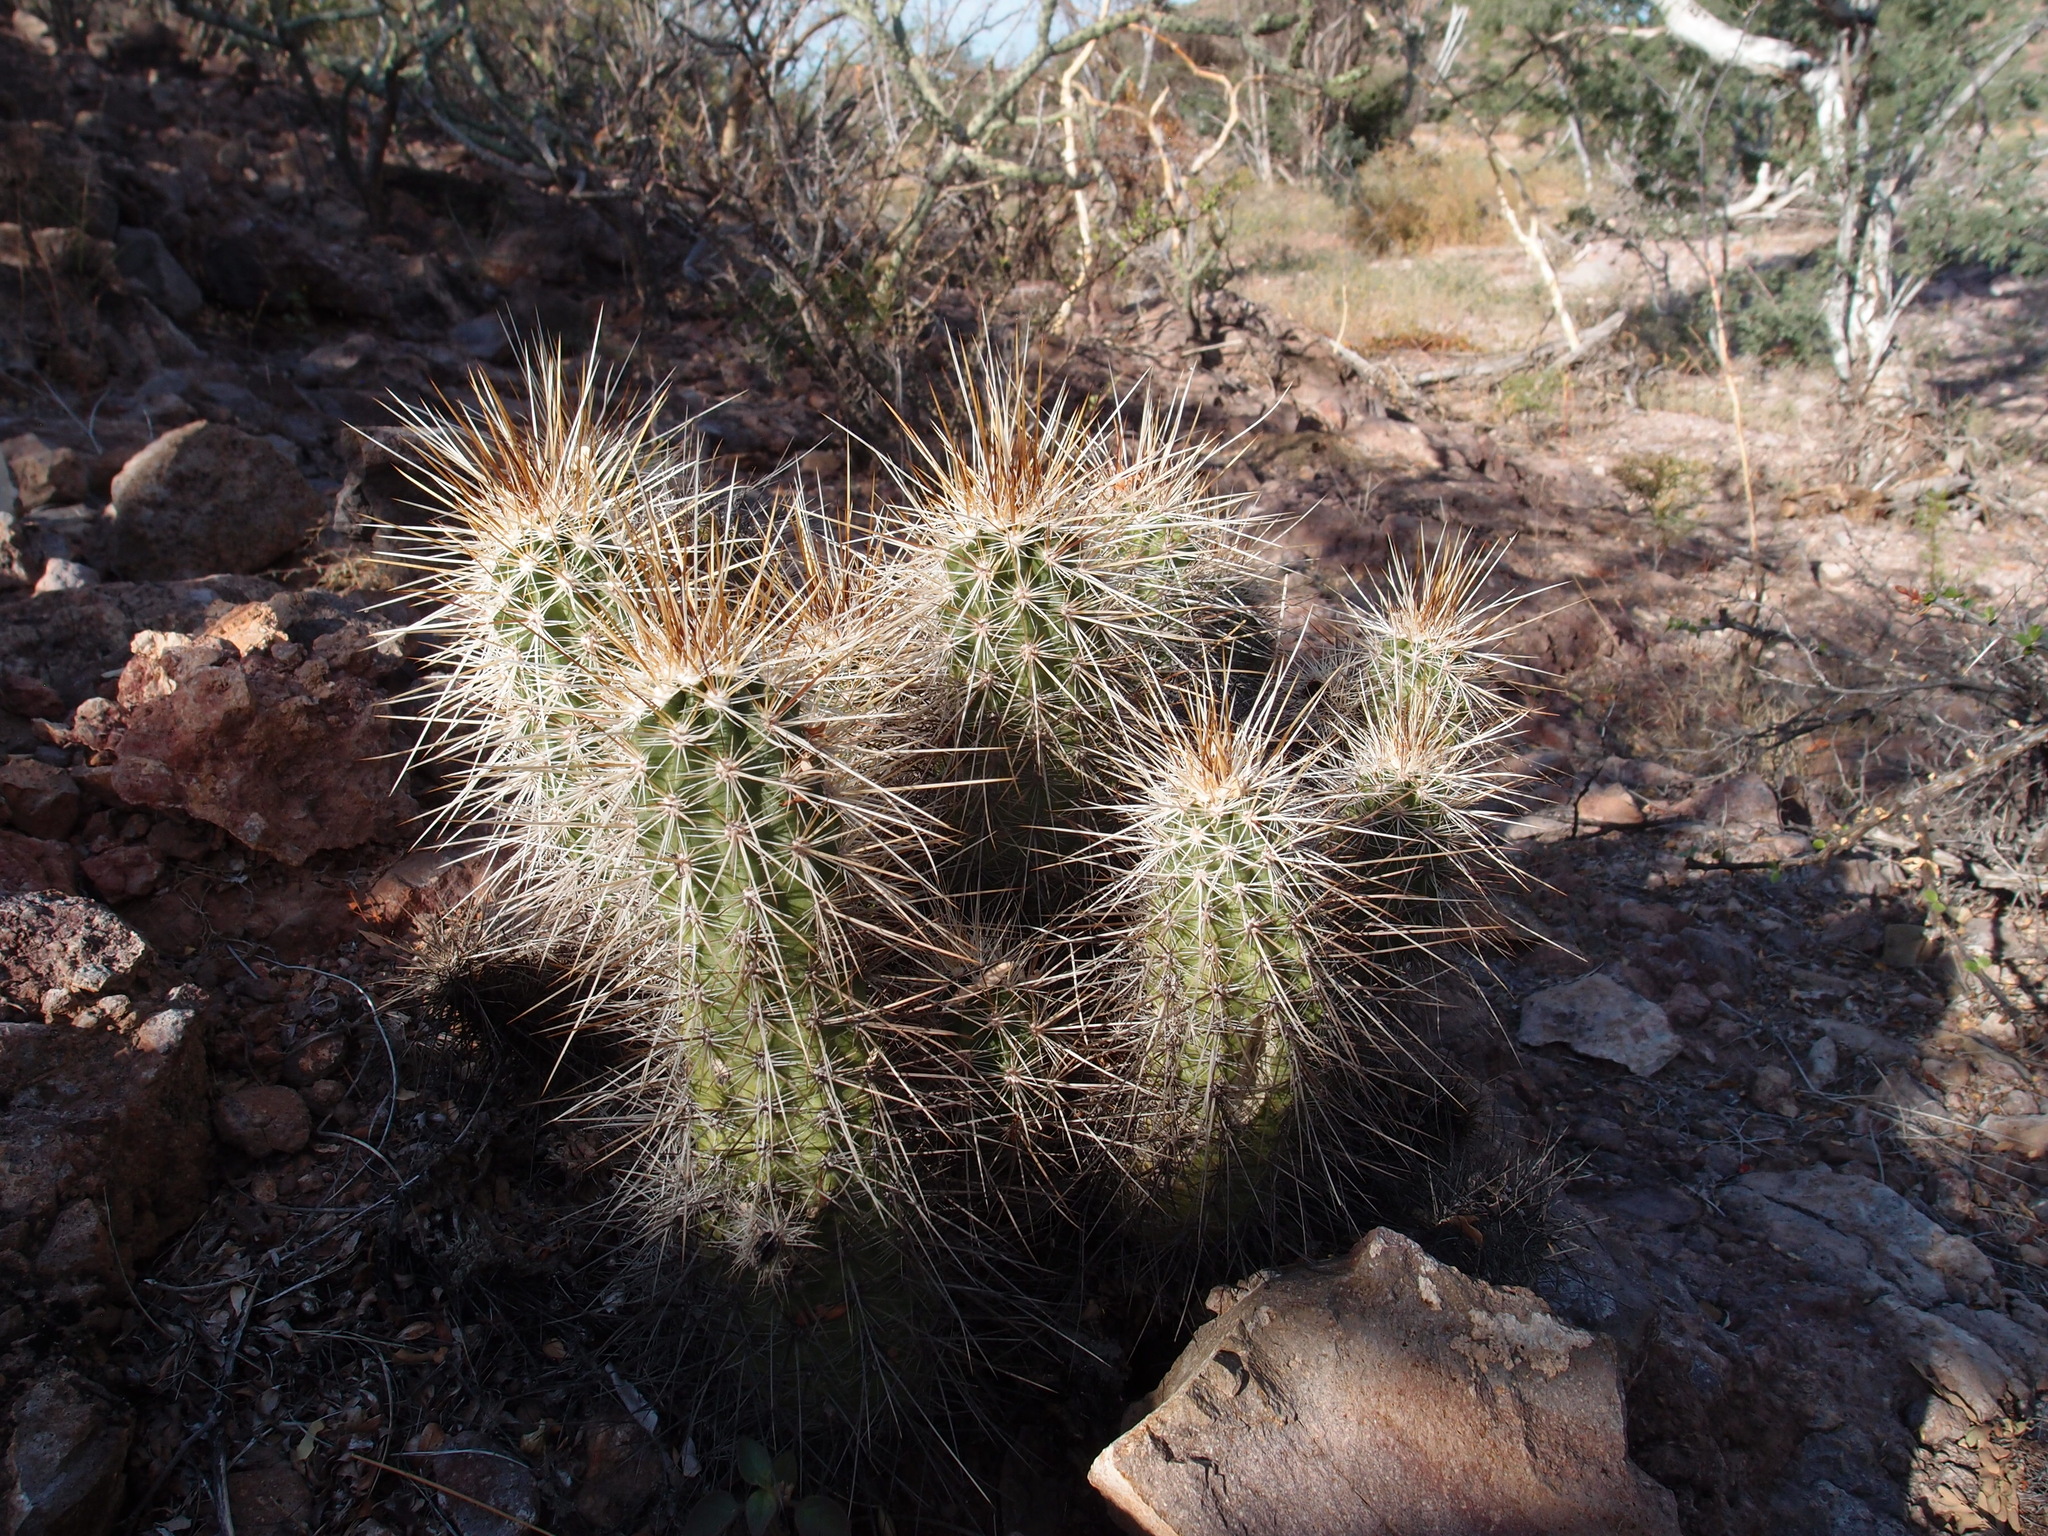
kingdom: Plantae
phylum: Tracheophyta
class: Magnoliopsida
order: Caryophyllales
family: Cactaceae
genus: Echinocereus
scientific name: Echinocereus llanurensis
